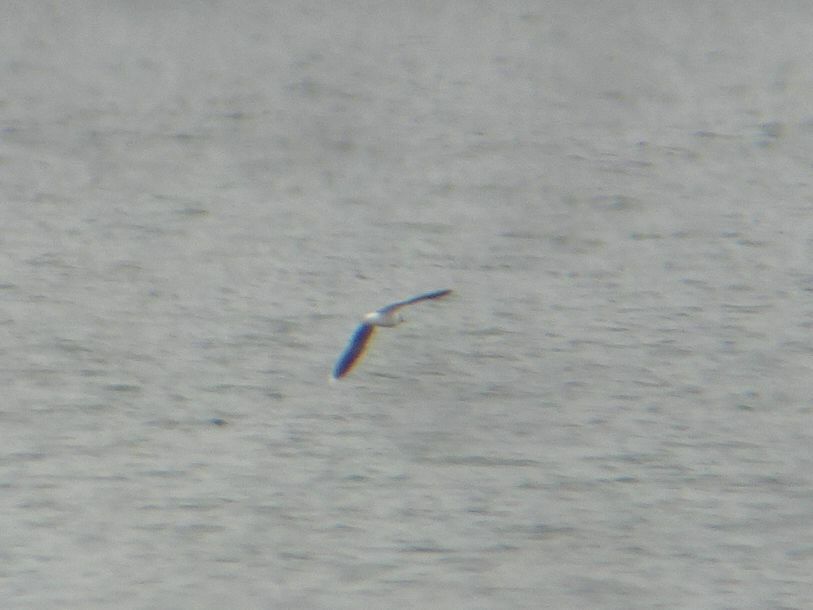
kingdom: Animalia
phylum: Chordata
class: Aves
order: Charadriiformes
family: Laridae
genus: Hydrocoloeus
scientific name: Hydrocoloeus minutus
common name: Little gull
